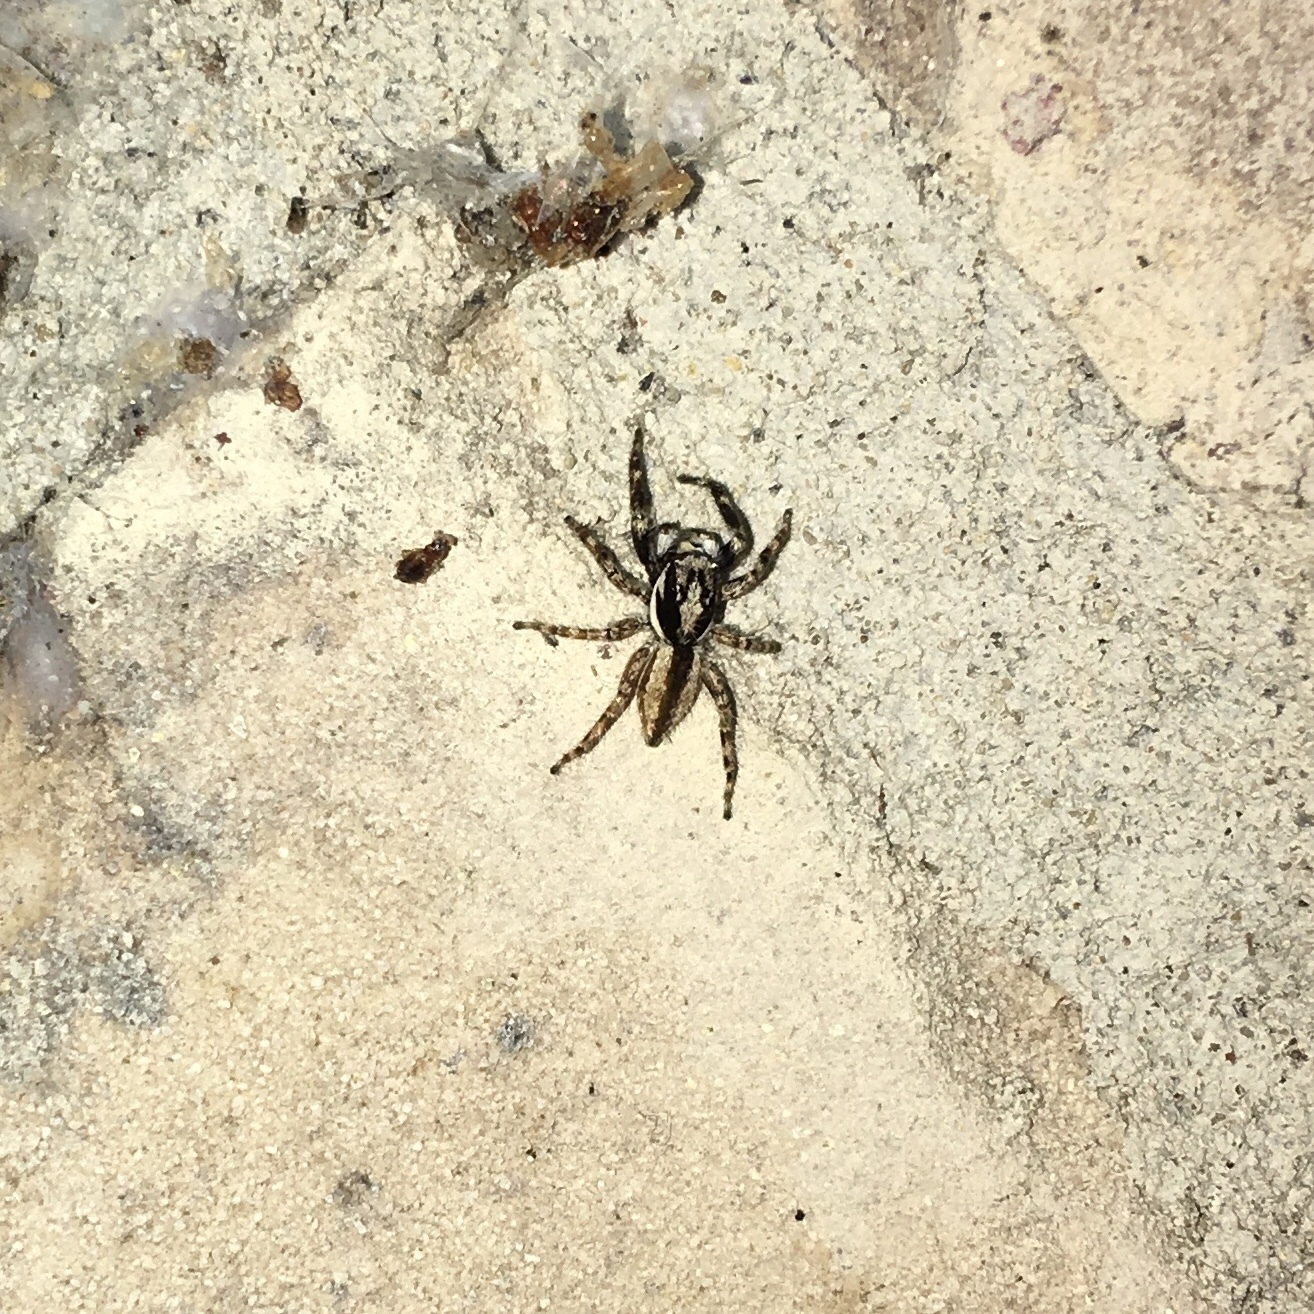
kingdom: Animalia
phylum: Arthropoda
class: Arachnida
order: Araneae
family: Salticidae
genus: Menemerus
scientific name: Menemerus bivittatus
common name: Gray wall jumper
